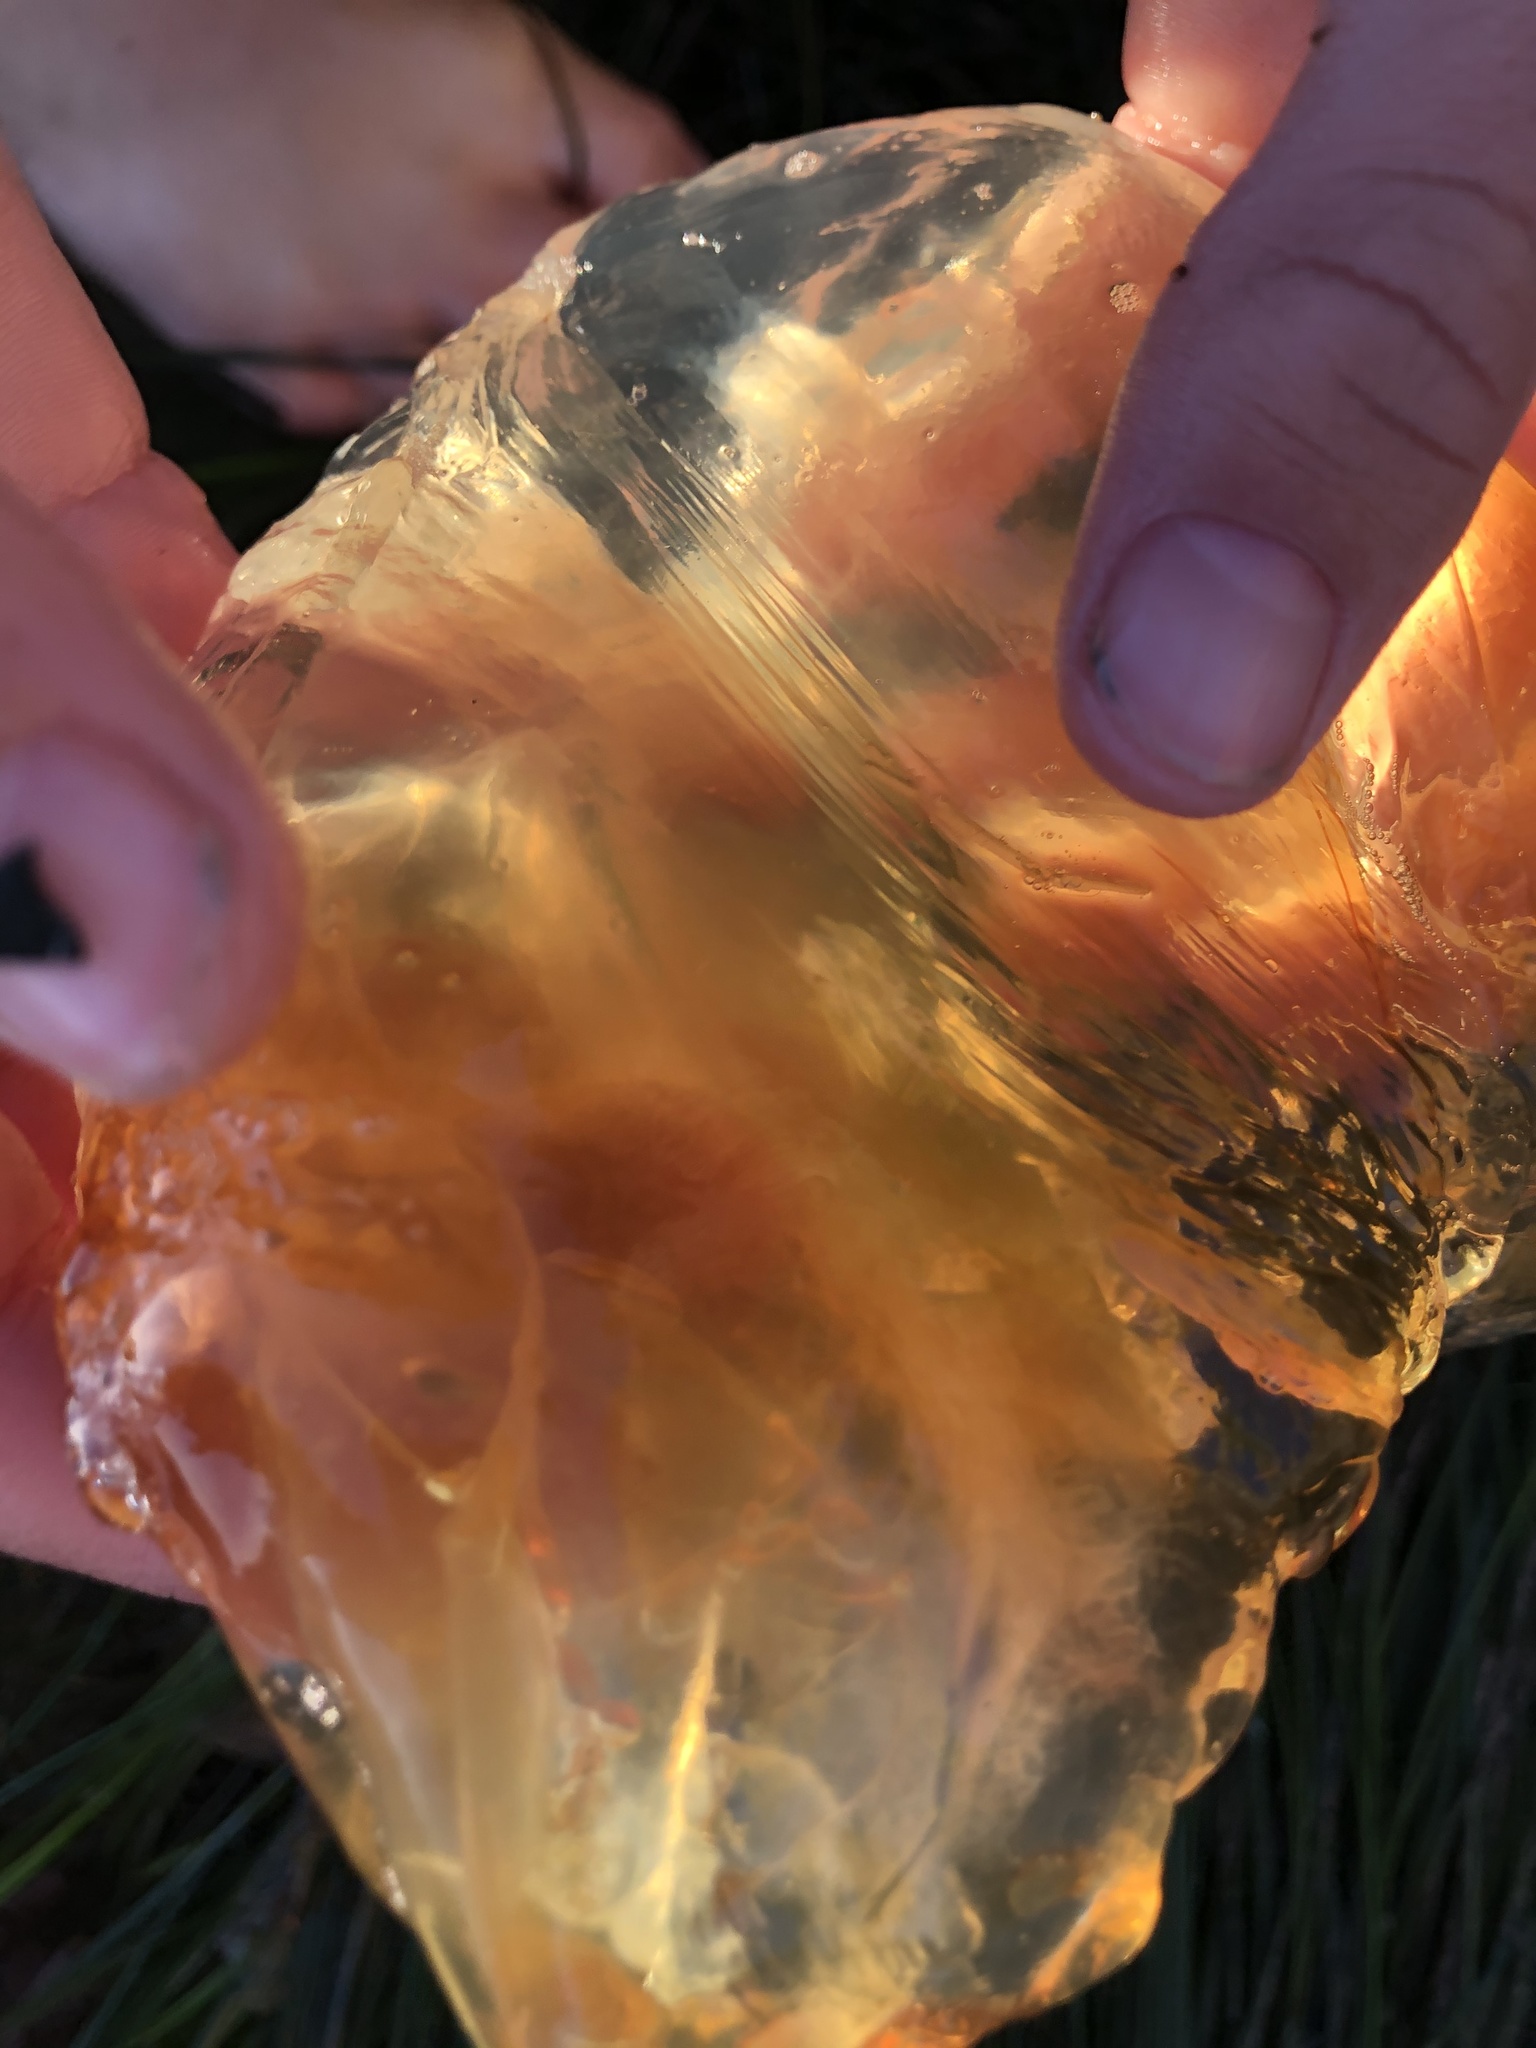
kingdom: Animalia
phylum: Cnidaria
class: Scyphozoa
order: Semaeostomeae
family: Pelagiidae
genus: Chrysaora
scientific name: Chrysaora fuscescens
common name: Sea nettle
